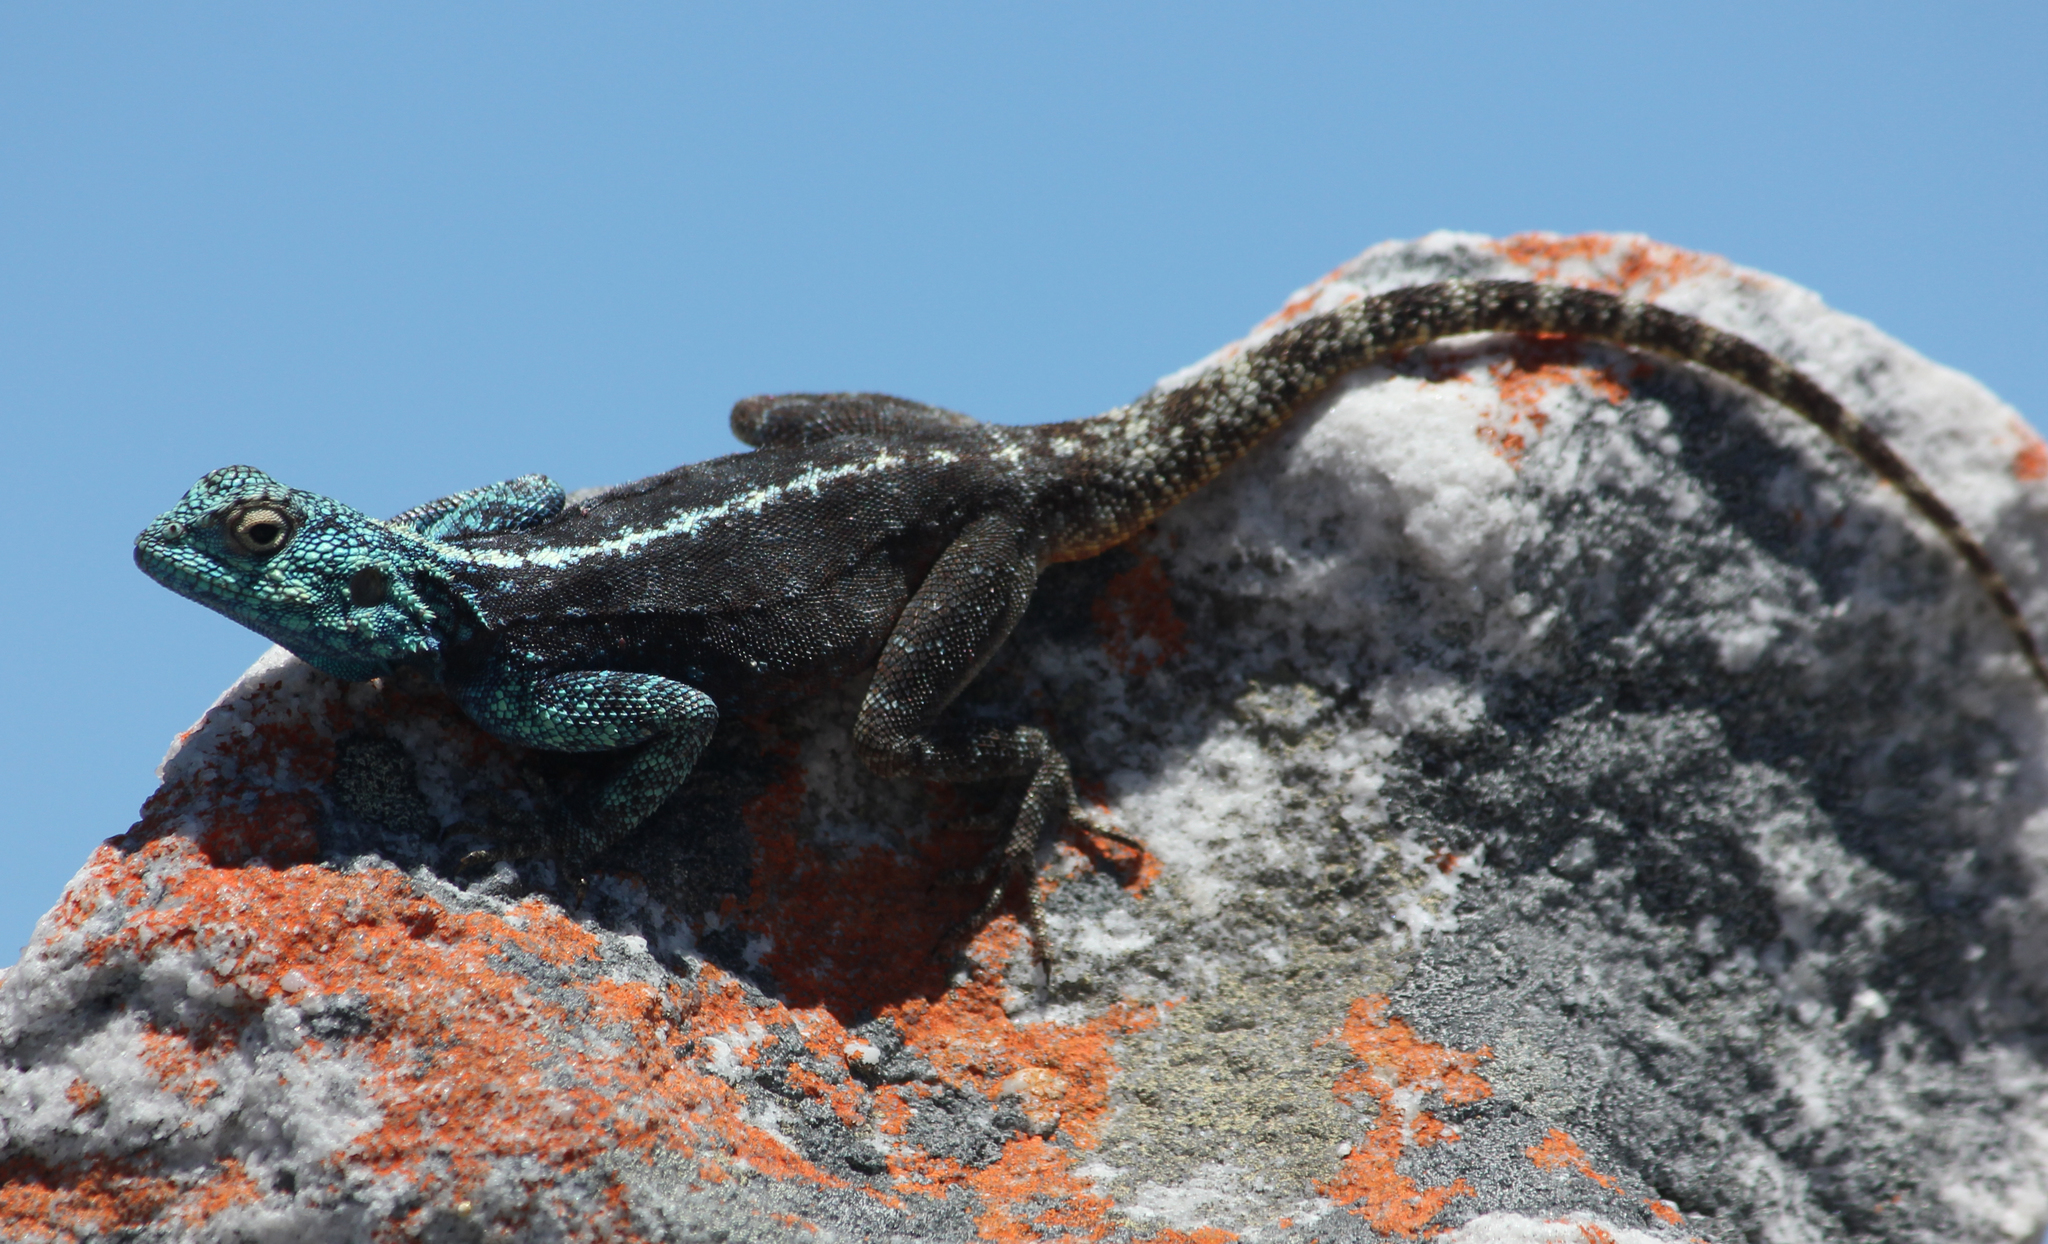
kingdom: Animalia
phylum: Chordata
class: Squamata
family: Agamidae
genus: Agama
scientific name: Agama atra
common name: Southern african rock agama
